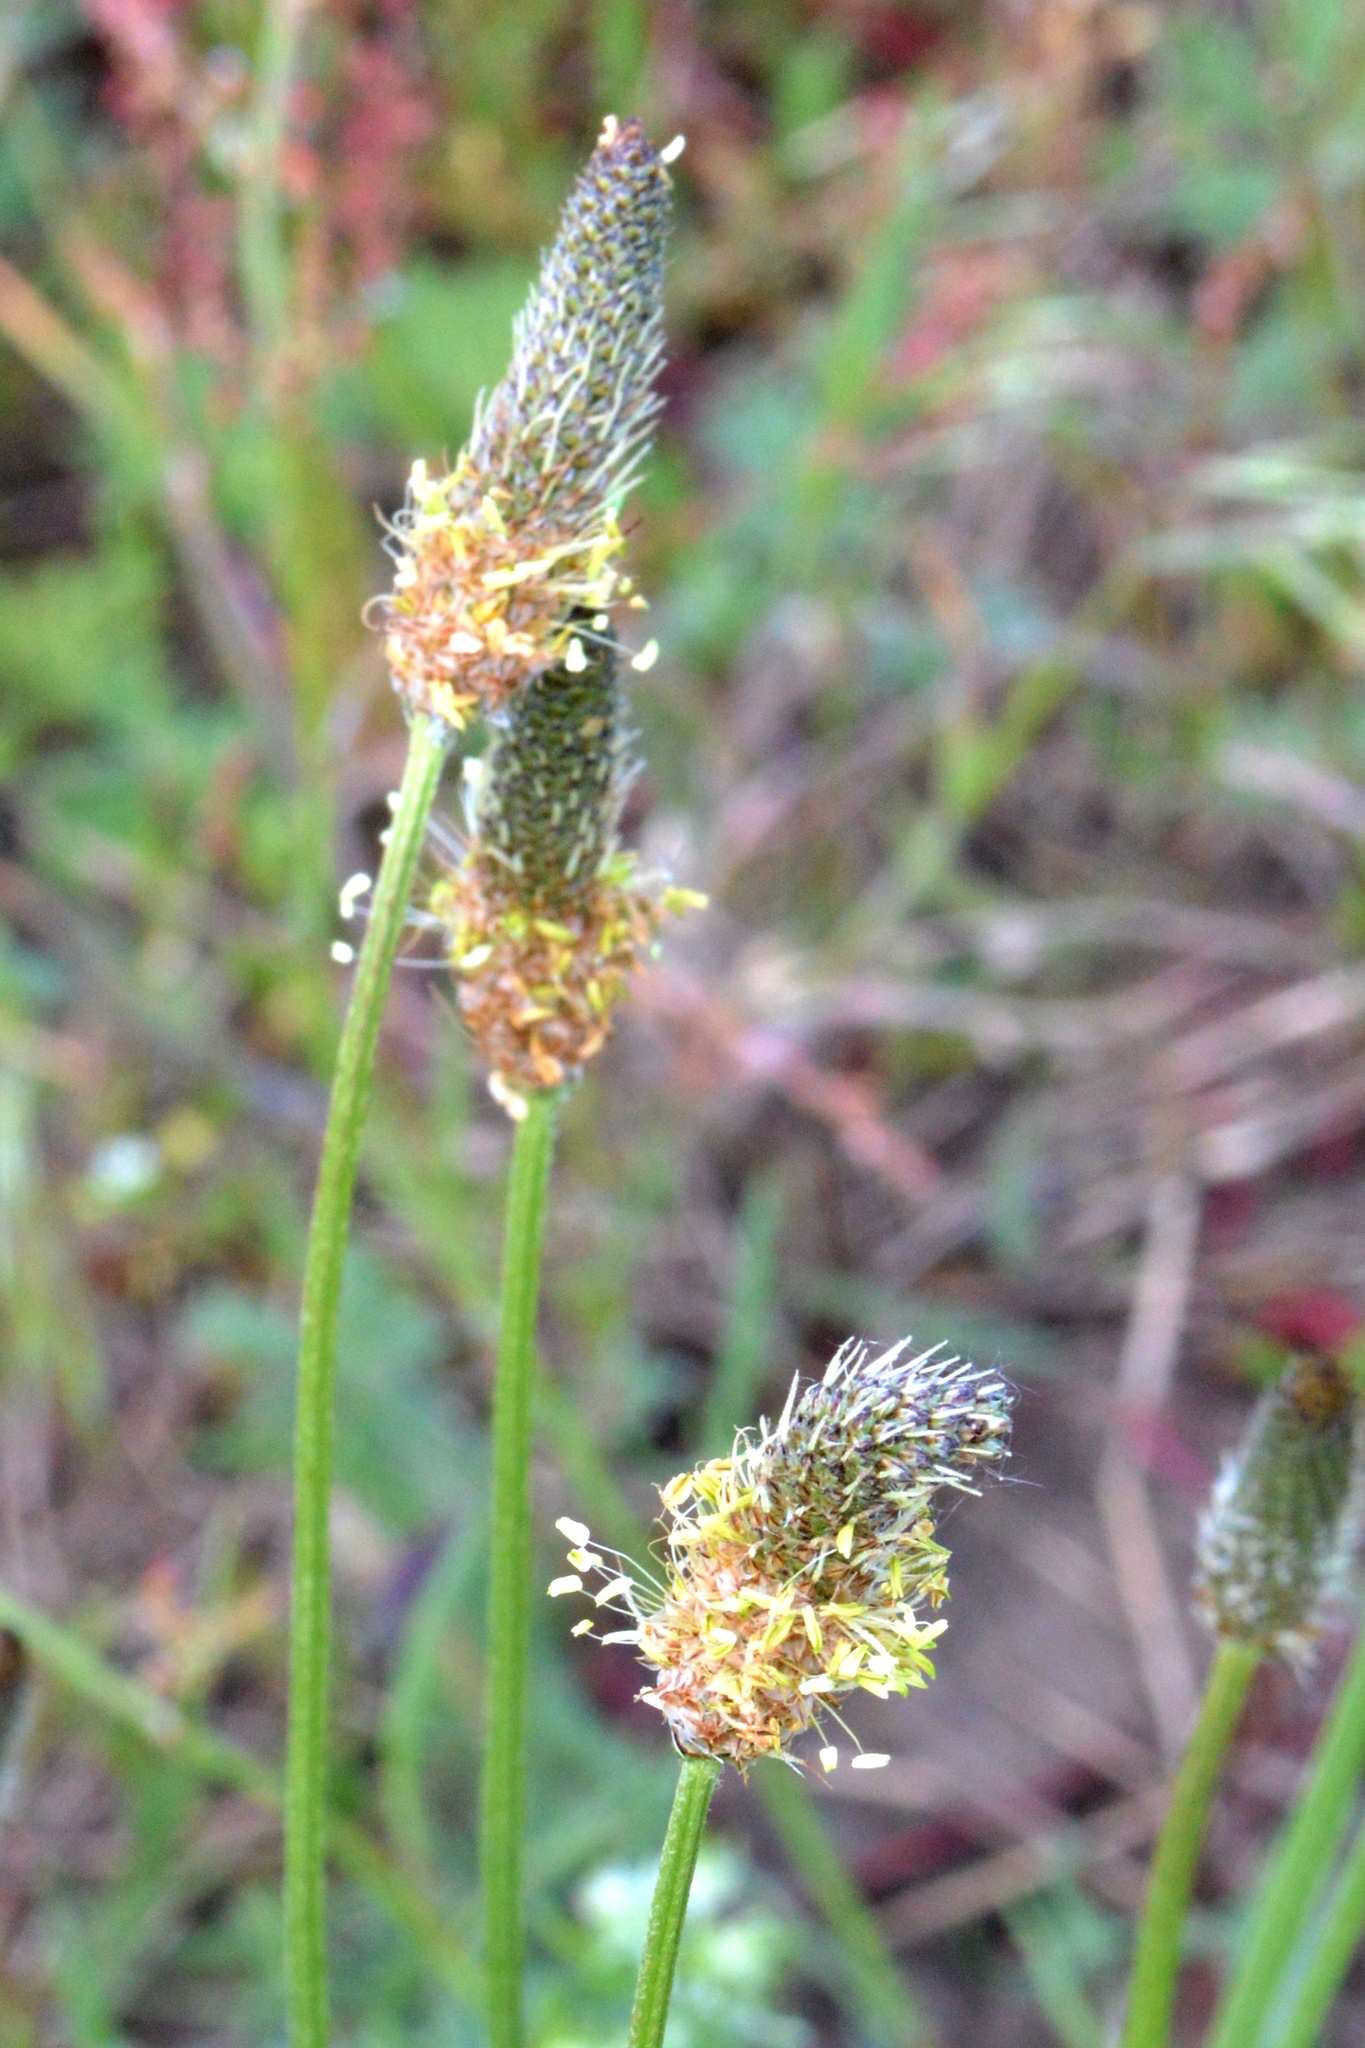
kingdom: Plantae
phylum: Tracheophyta
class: Magnoliopsida
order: Lamiales
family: Plantaginaceae
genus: Plantago
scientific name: Plantago lanceolata
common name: Ribwort plantain
